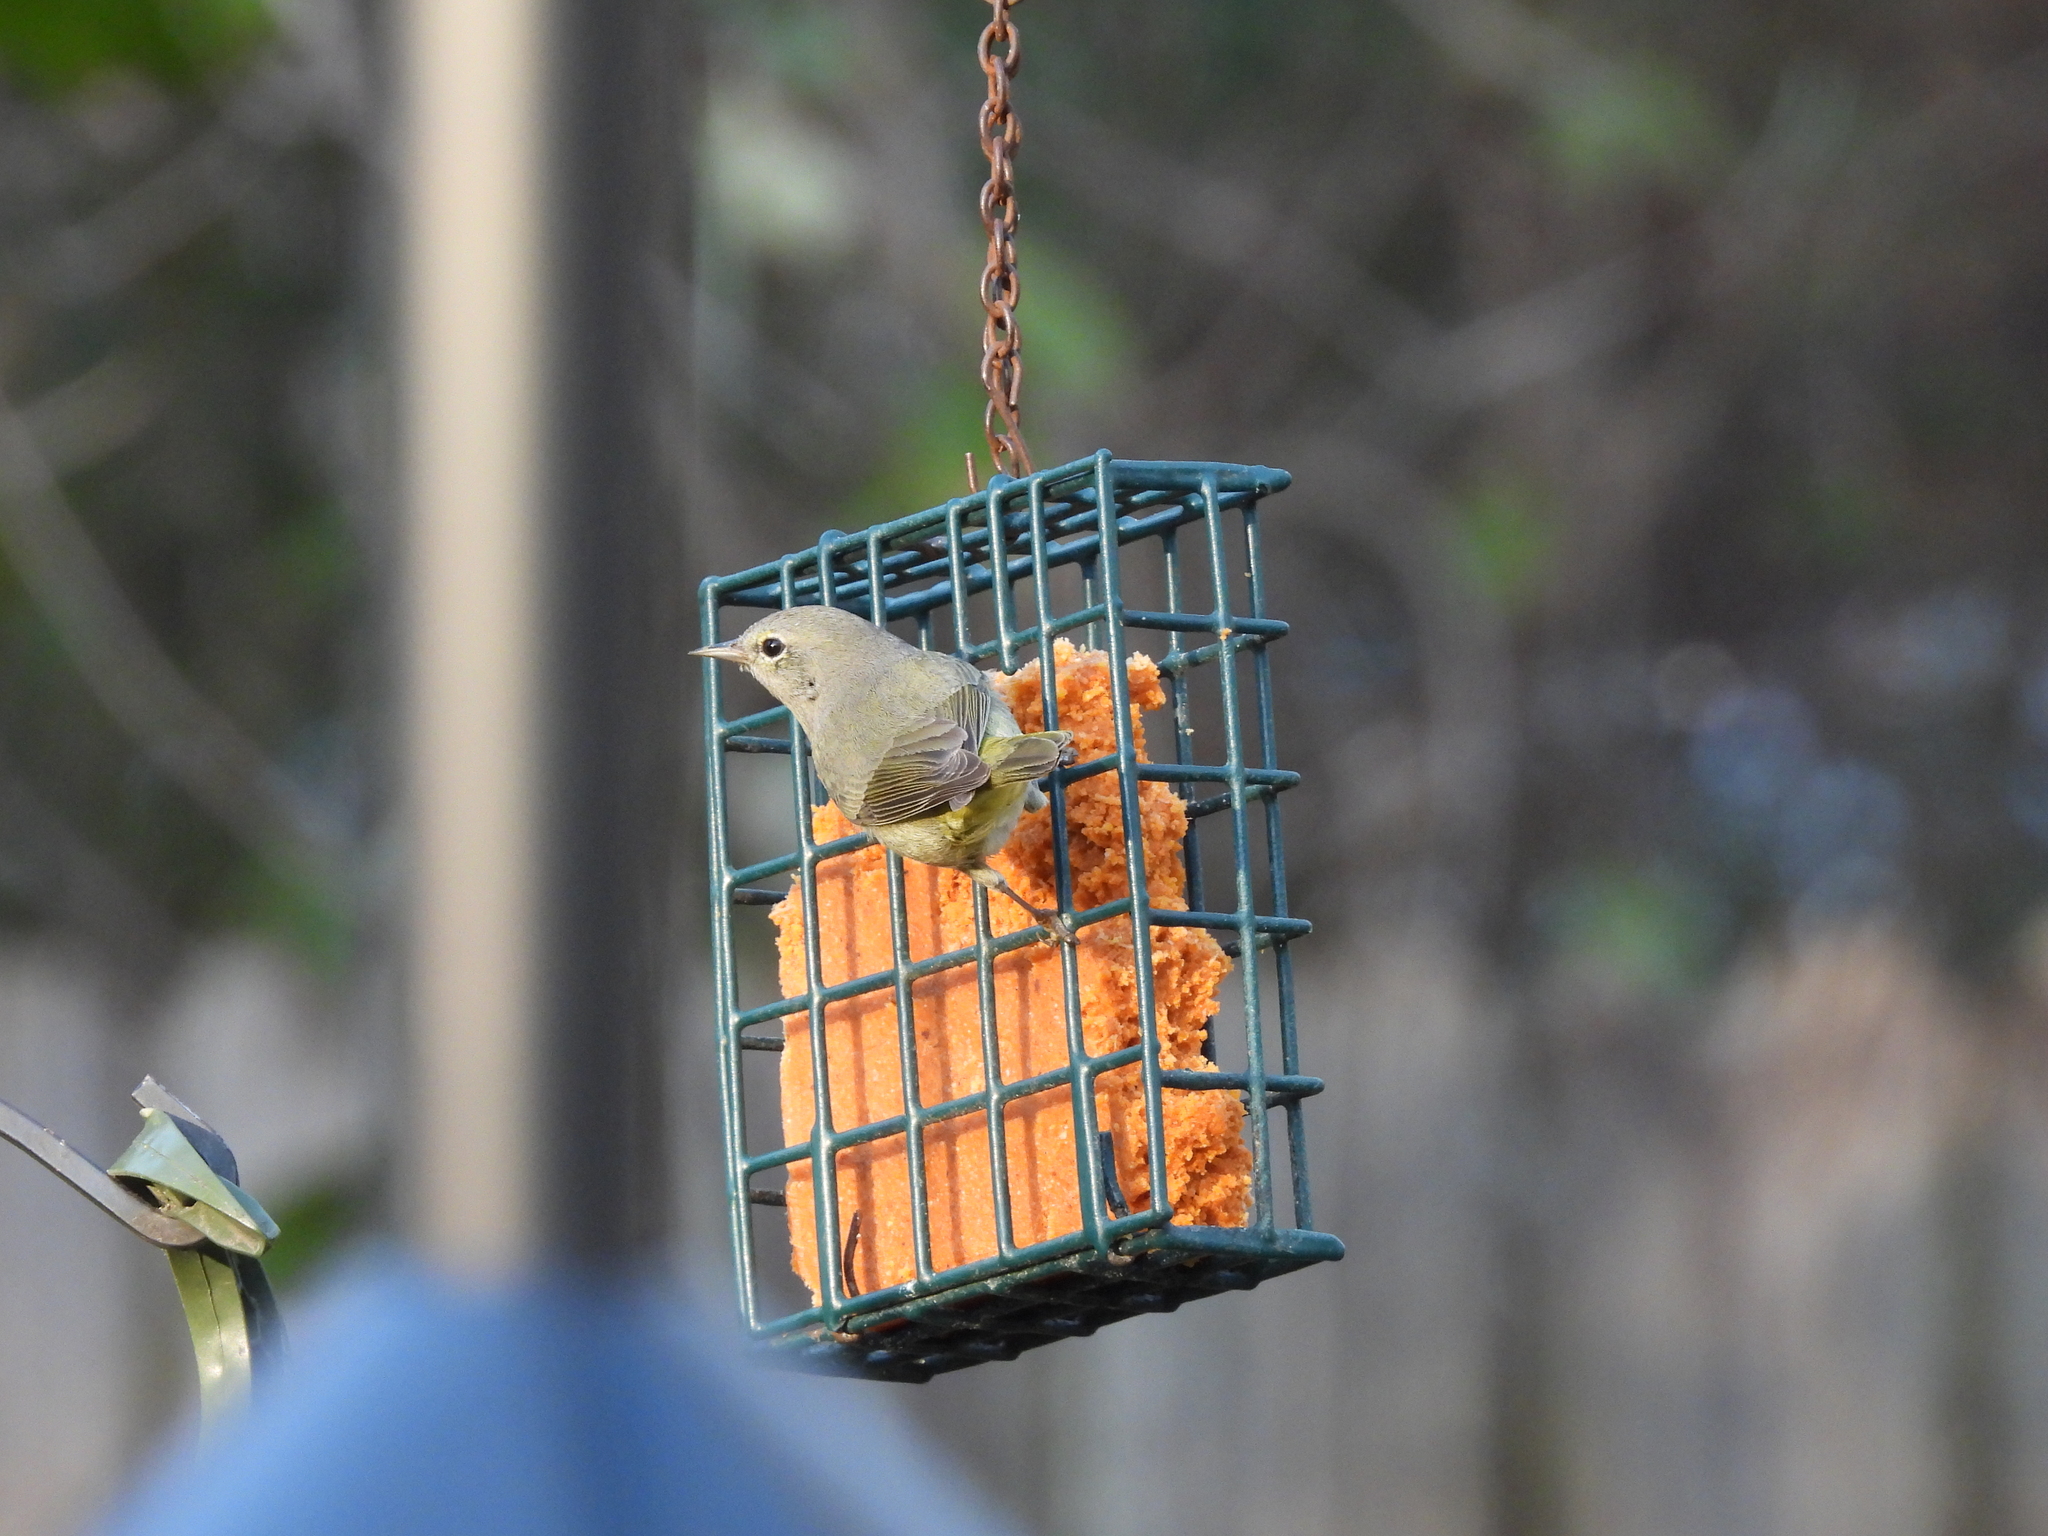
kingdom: Animalia
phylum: Chordata
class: Aves
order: Passeriformes
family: Parulidae
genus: Leiothlypis
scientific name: Leiothlypis celata
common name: Orange-crowned warbler
